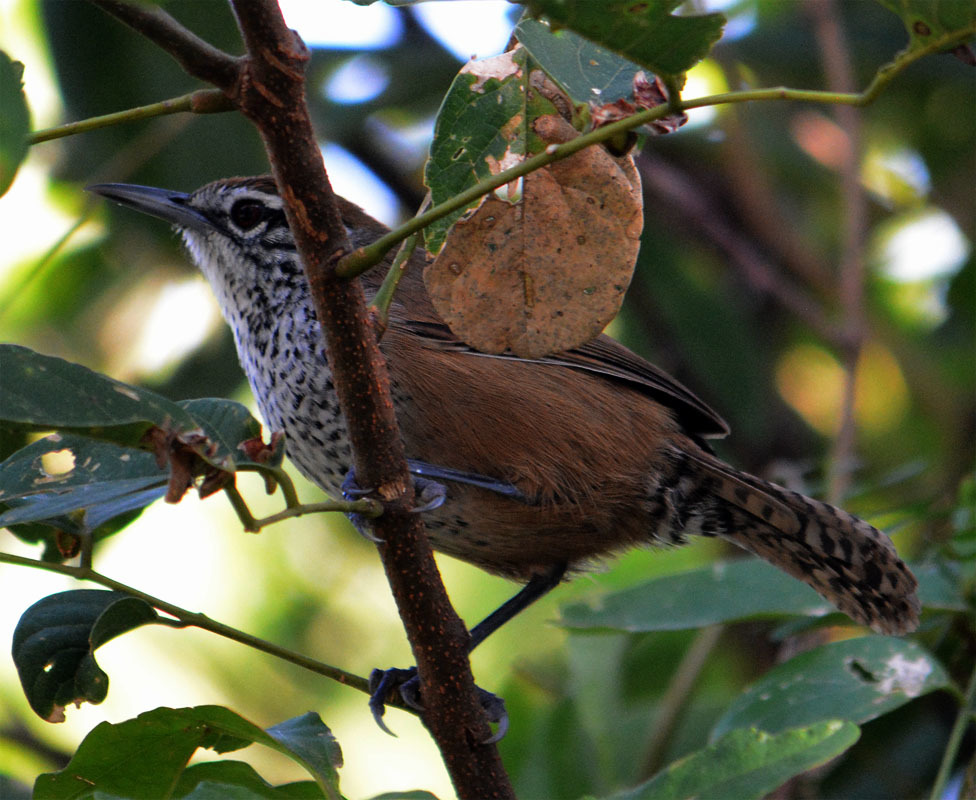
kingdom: Animalia
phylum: Chordata
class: Aves
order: Passeriformes
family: Troglodytidae
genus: Pheugopedius
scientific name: Pheugopedius maculipectus
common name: Spot-breasted wren
